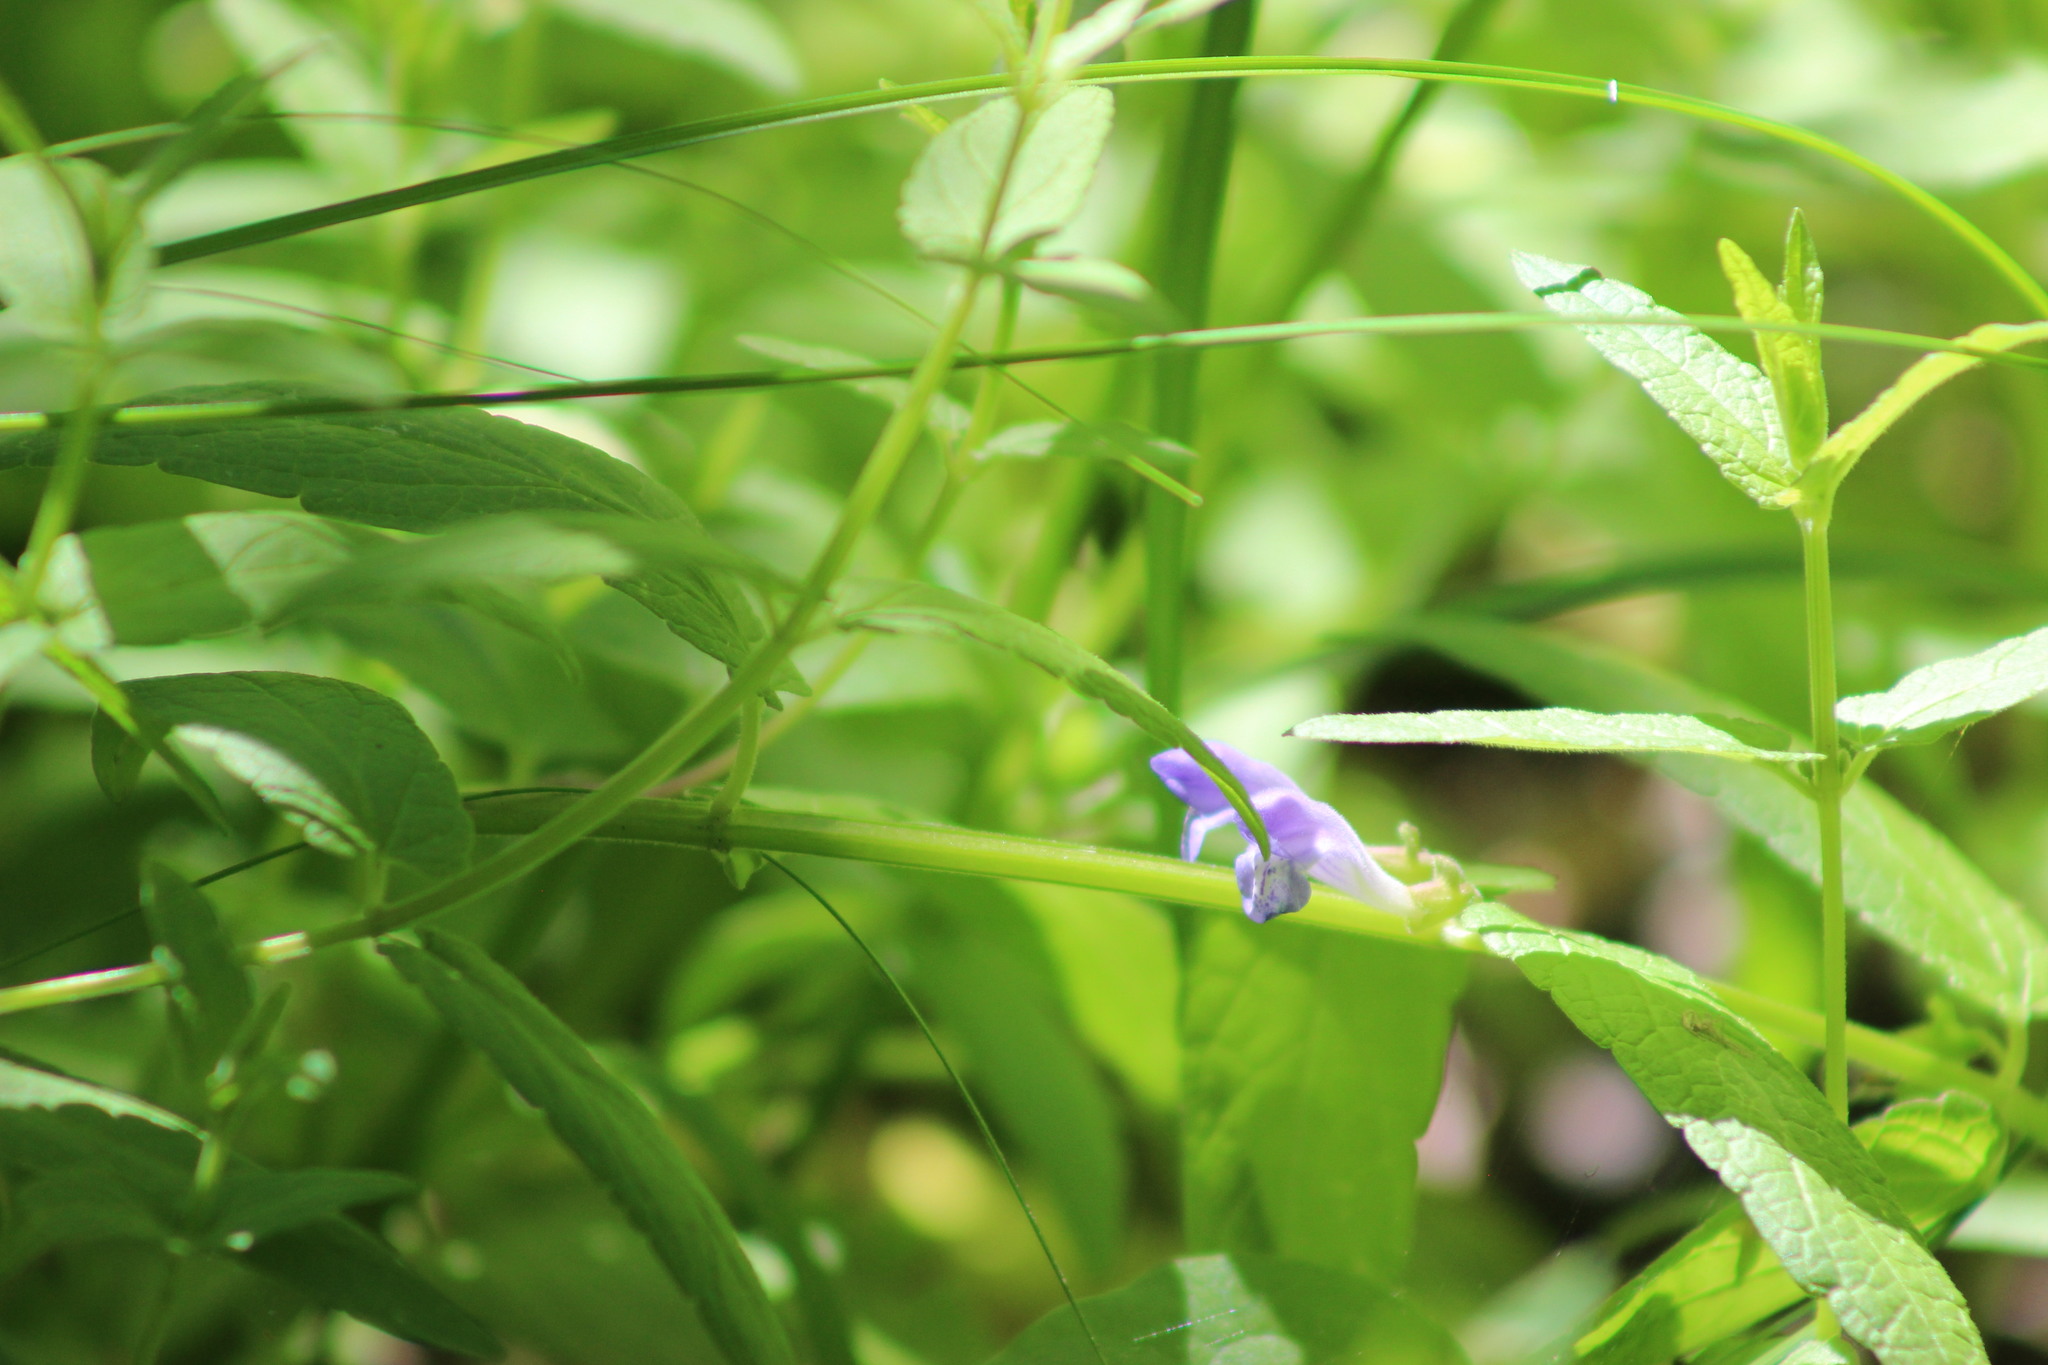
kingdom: Plantae
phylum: Tracheophyta
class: Magnoliopsida
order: Lamiales
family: Lamiaceae
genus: Scutellaria
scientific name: Scutellaria galericulata
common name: Skullcap
